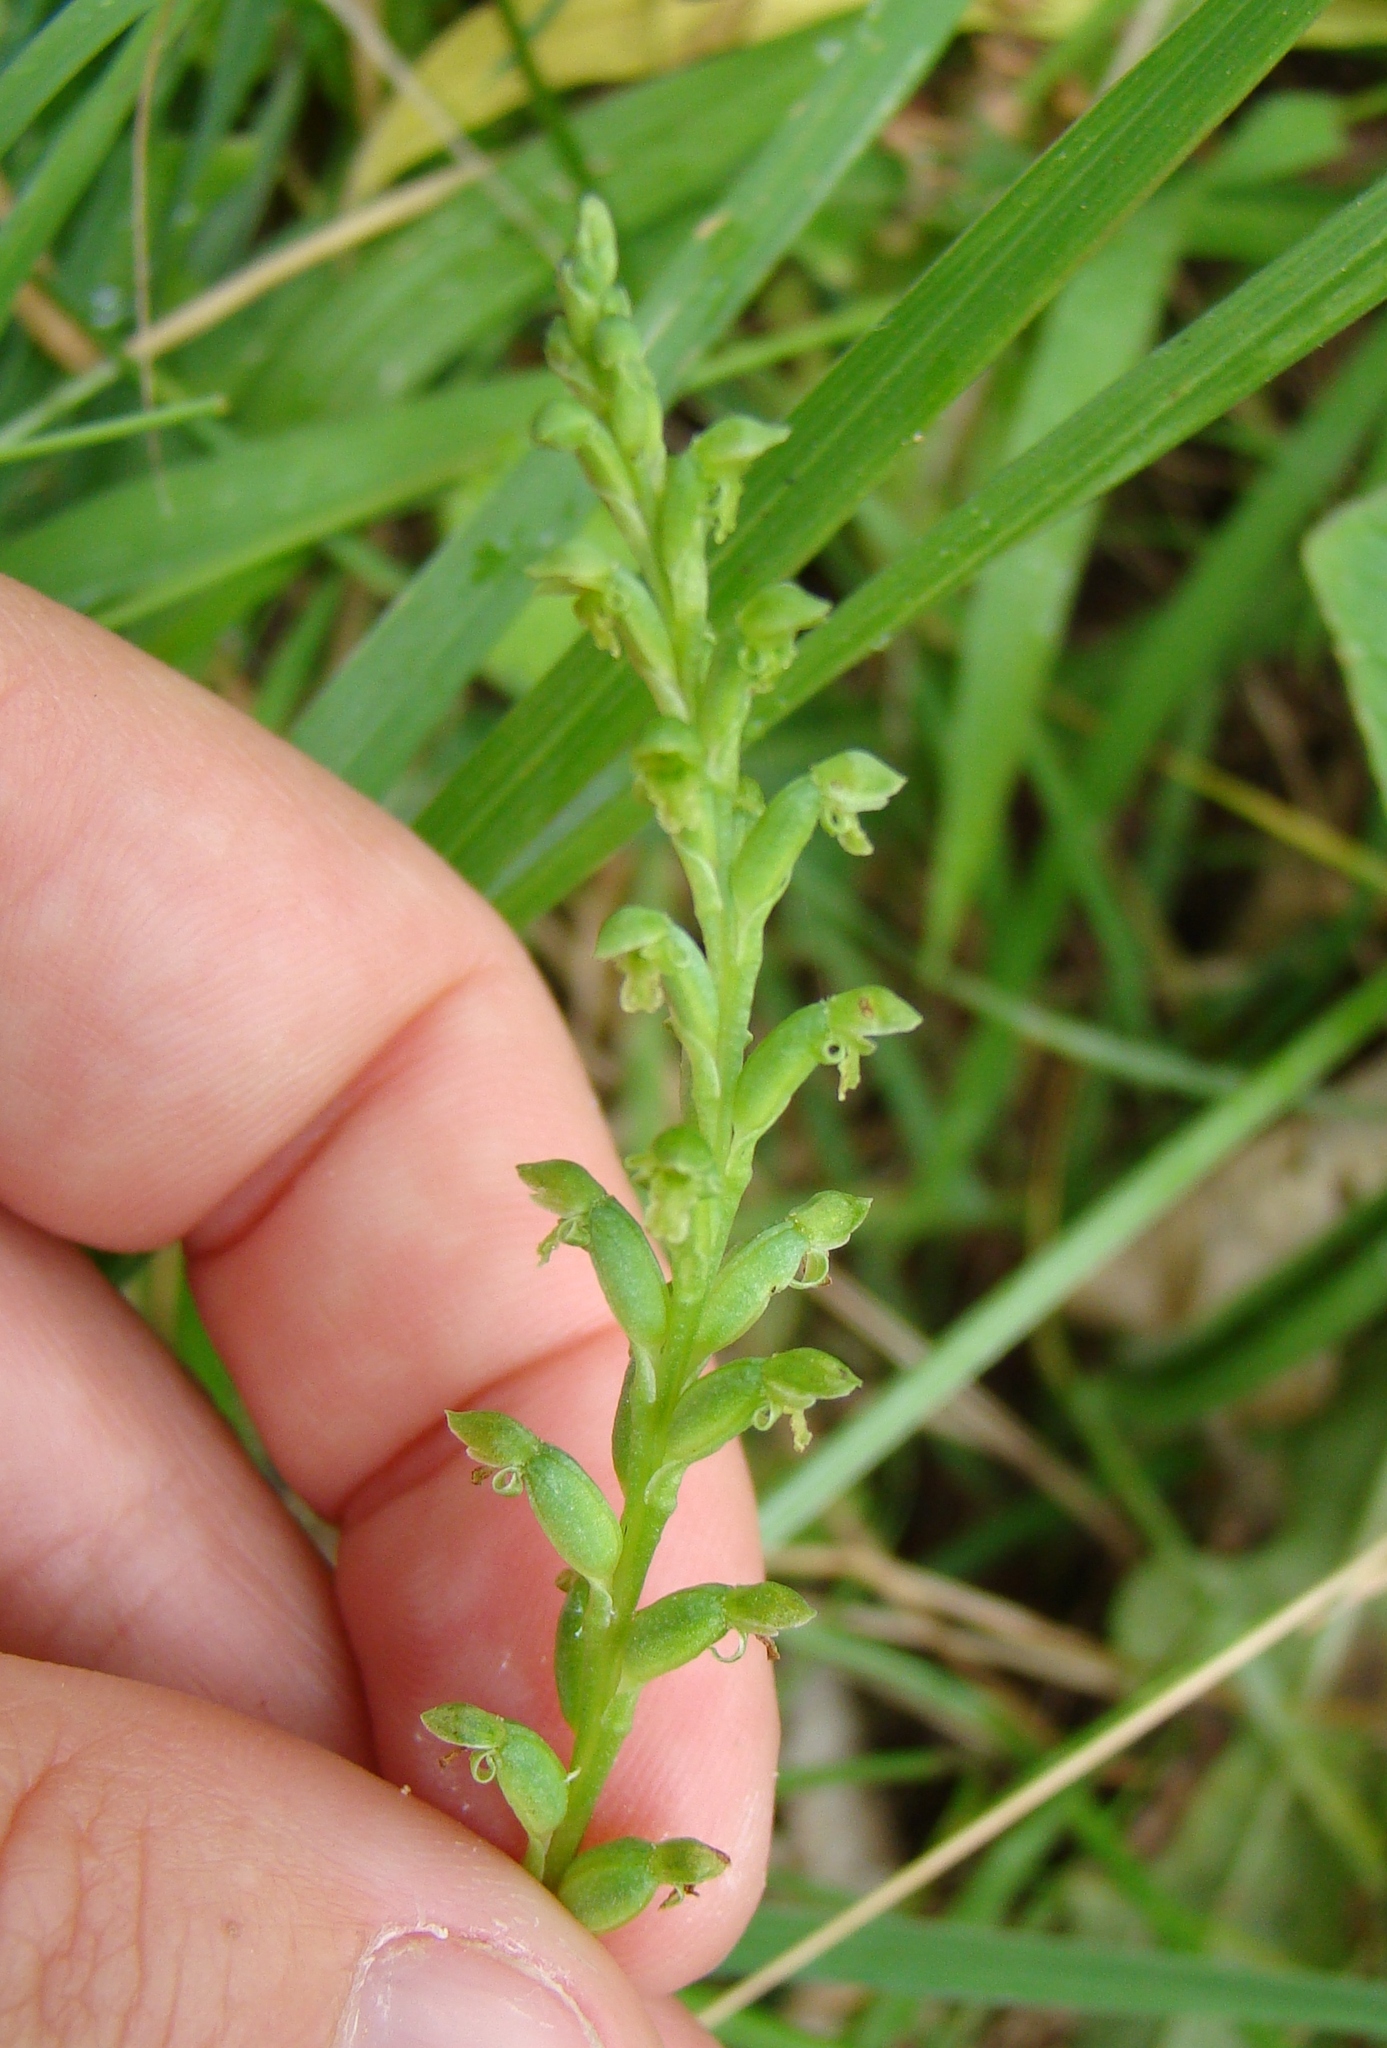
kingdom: Plantae
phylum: Tracheophyta
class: Liliopsida
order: Asparagales
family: Orchidaceae
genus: Microtis
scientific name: Microtis unifolia
